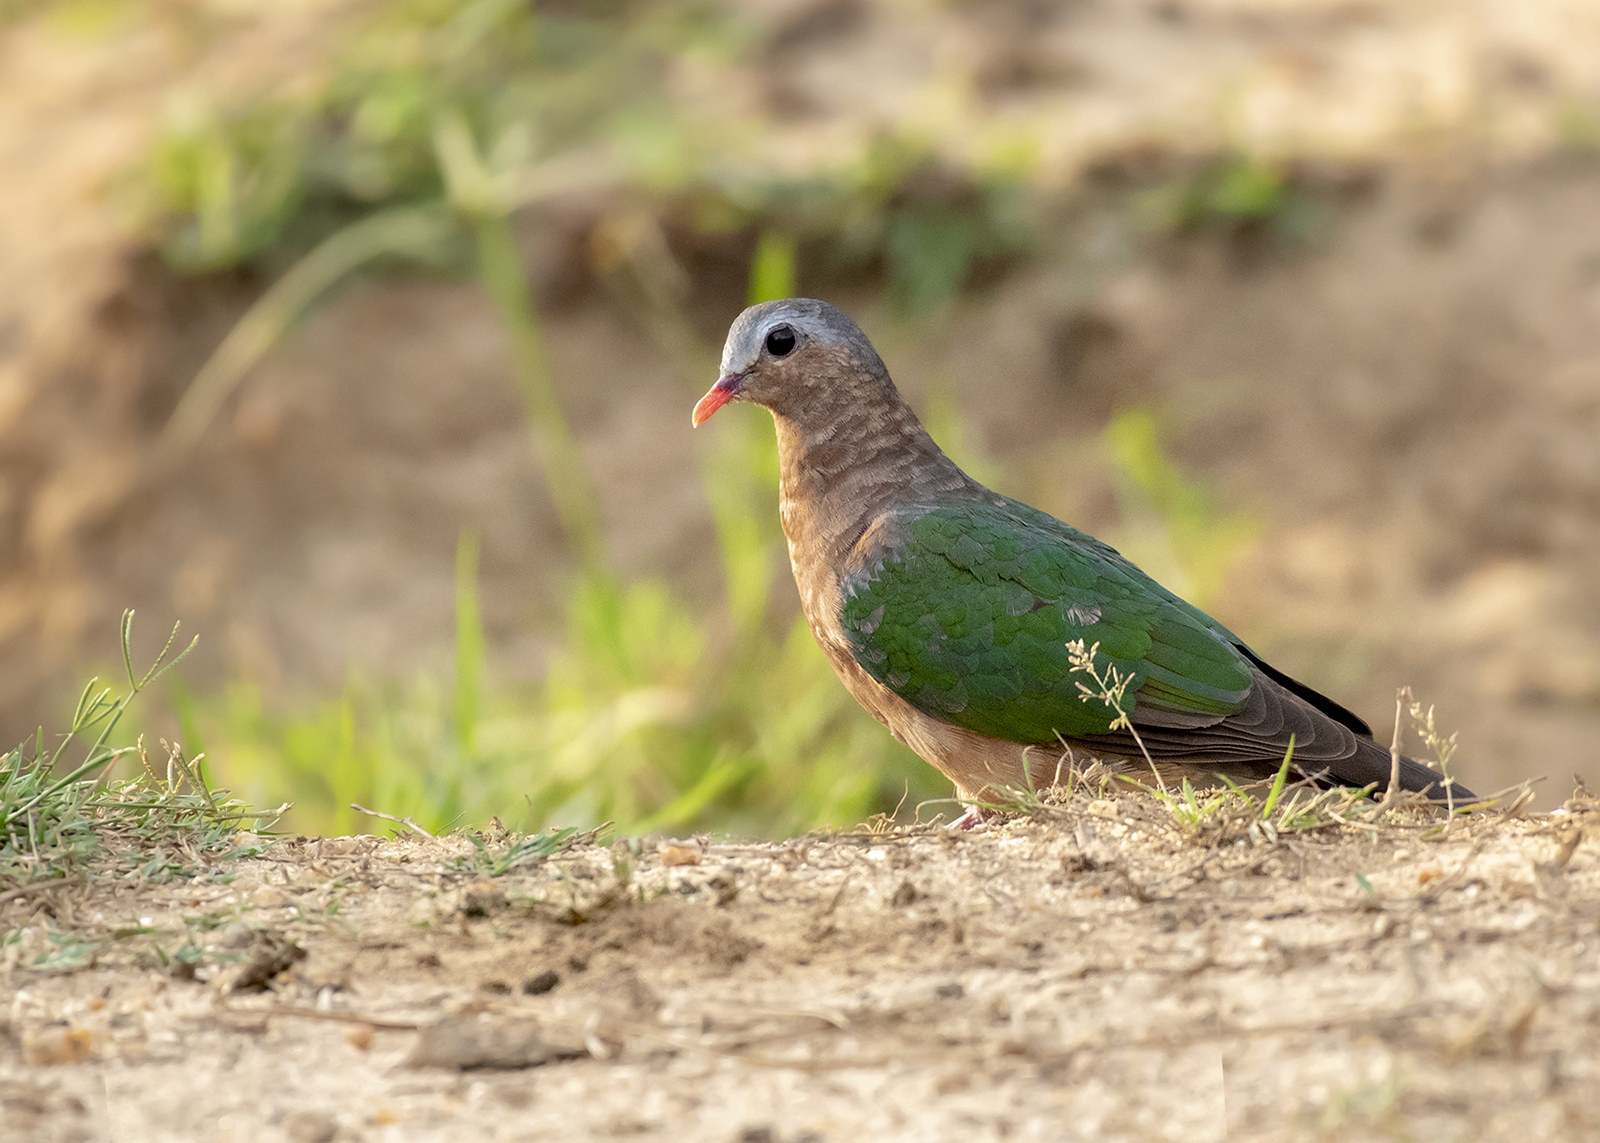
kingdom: Animalia
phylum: Chordata
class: Aves
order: Columbiformes
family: Columbidae
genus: Chalcophaps
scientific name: Chalcophaps indica
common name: Common emerald dove
